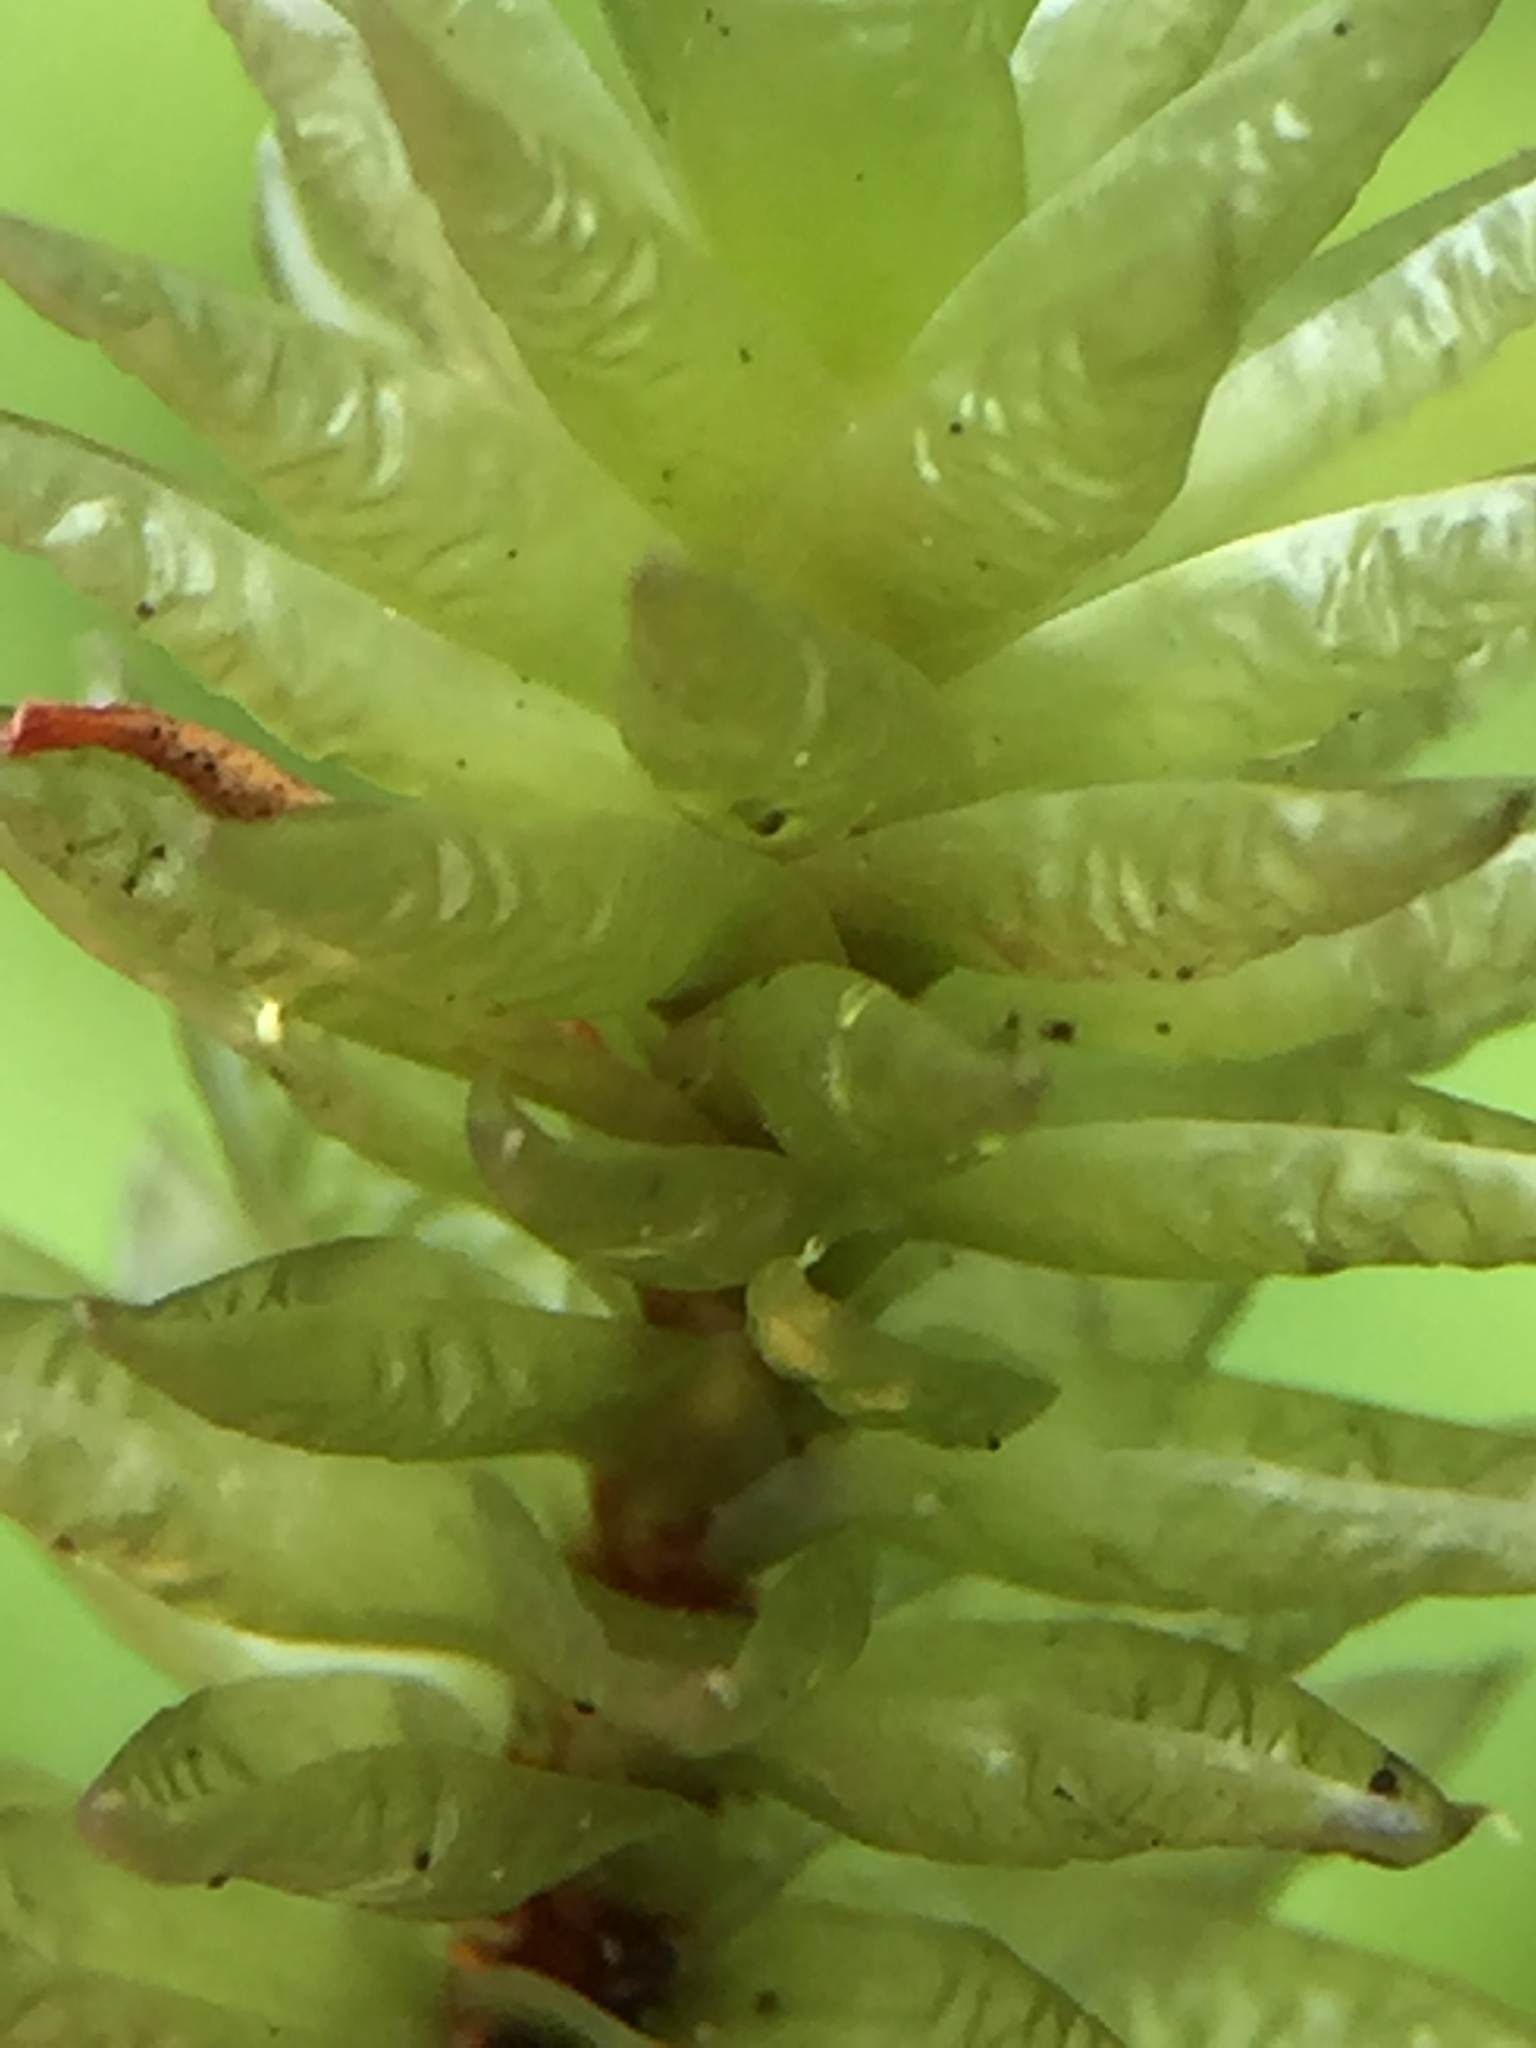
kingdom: Plantae
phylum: Bryophyta
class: Bryopsida
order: Bryales
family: Pulchrinodaceae
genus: Pulchrinodus
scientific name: Pulchrinodus inflatus
